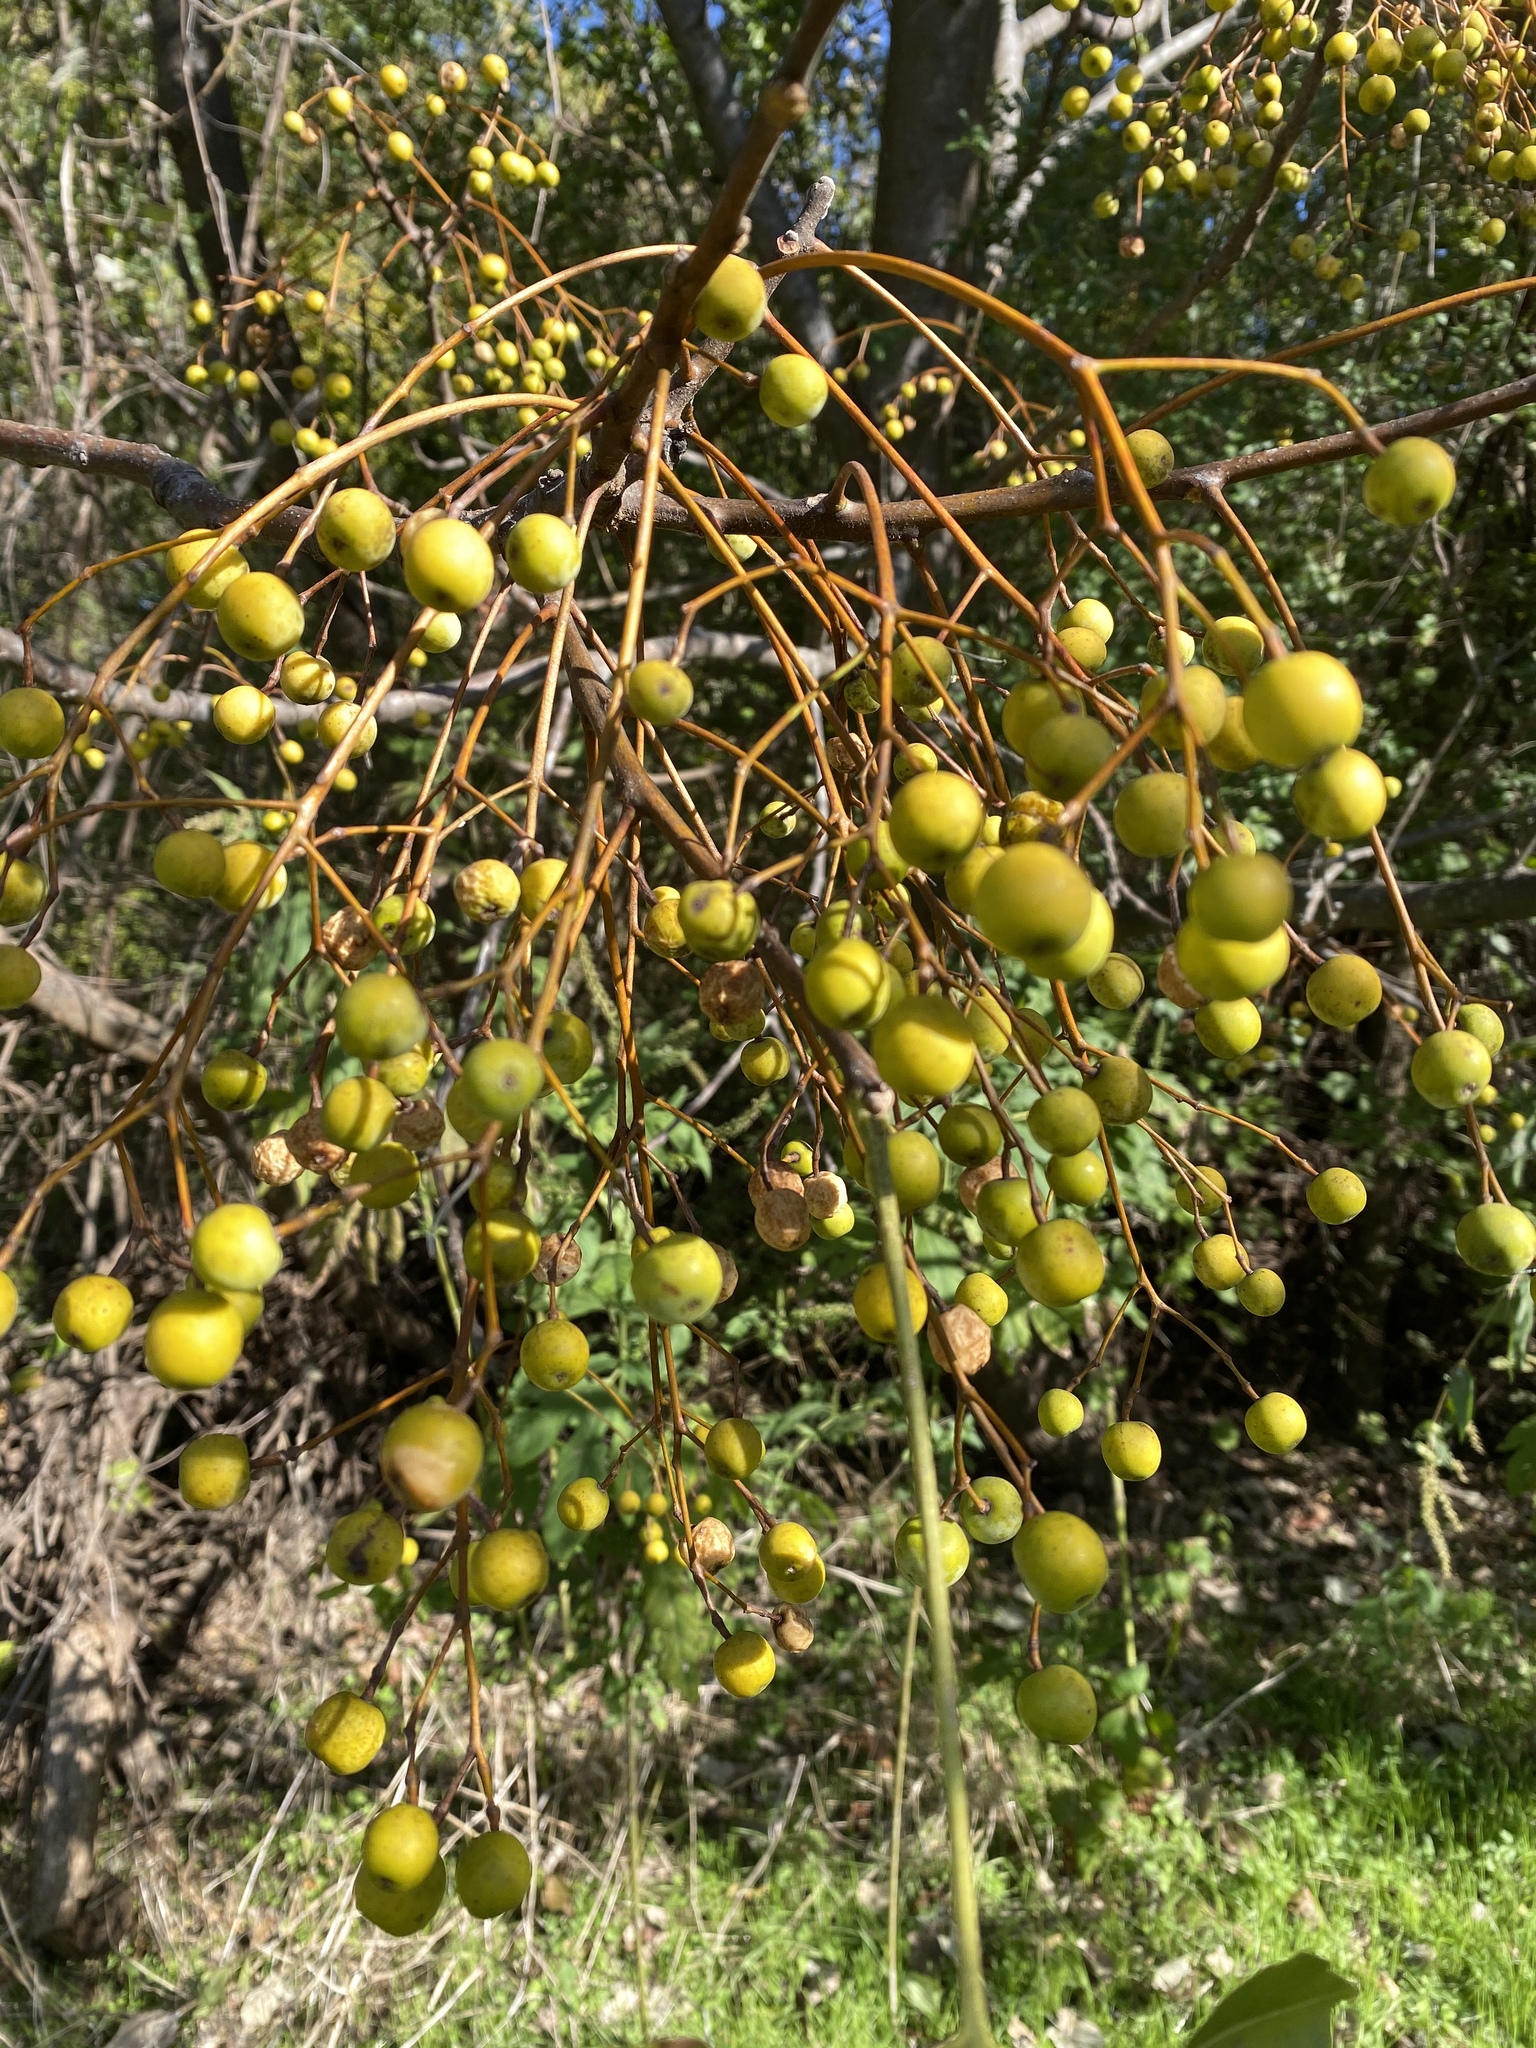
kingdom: Plantae
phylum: Tracheophyta
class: Magnoliopsida
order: Sapindales
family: Meliaceae
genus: Melia
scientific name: Melia azedarach
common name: Chinaberrytree
